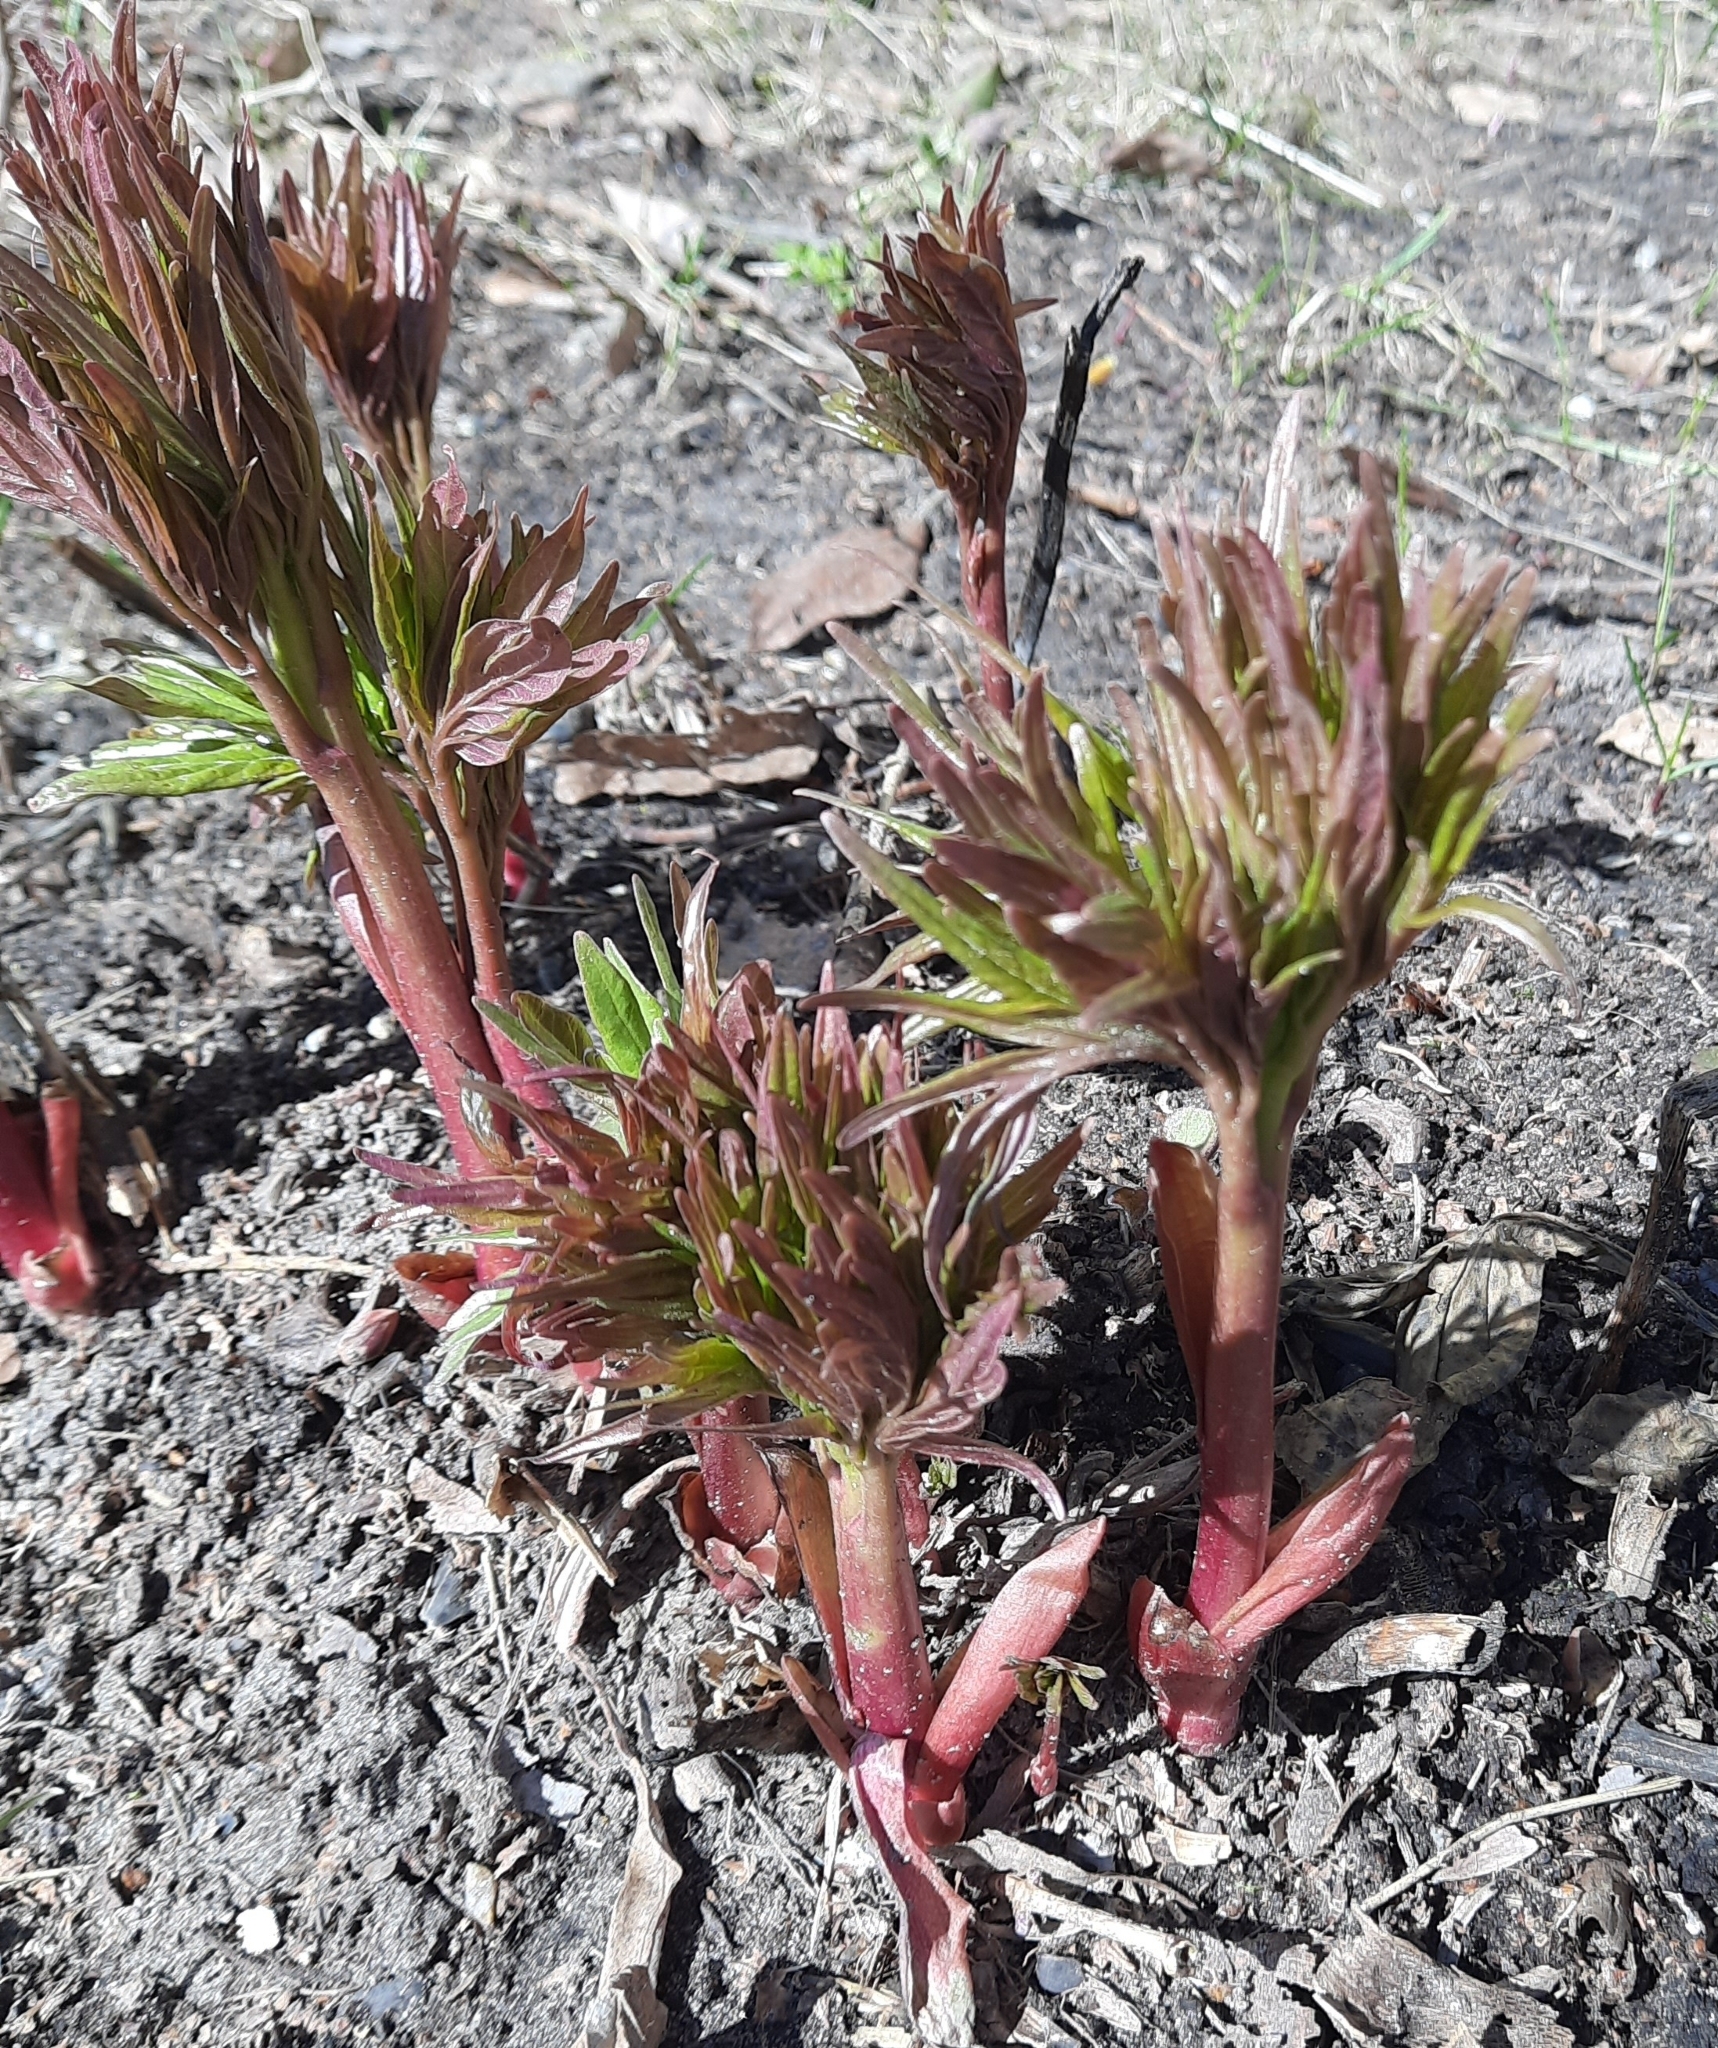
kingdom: Plantae
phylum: Tracheophyta
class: Magnoliopsida
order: Saxifragales
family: Paeoniaceae
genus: Paeonia
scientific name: Paeonia anomala
